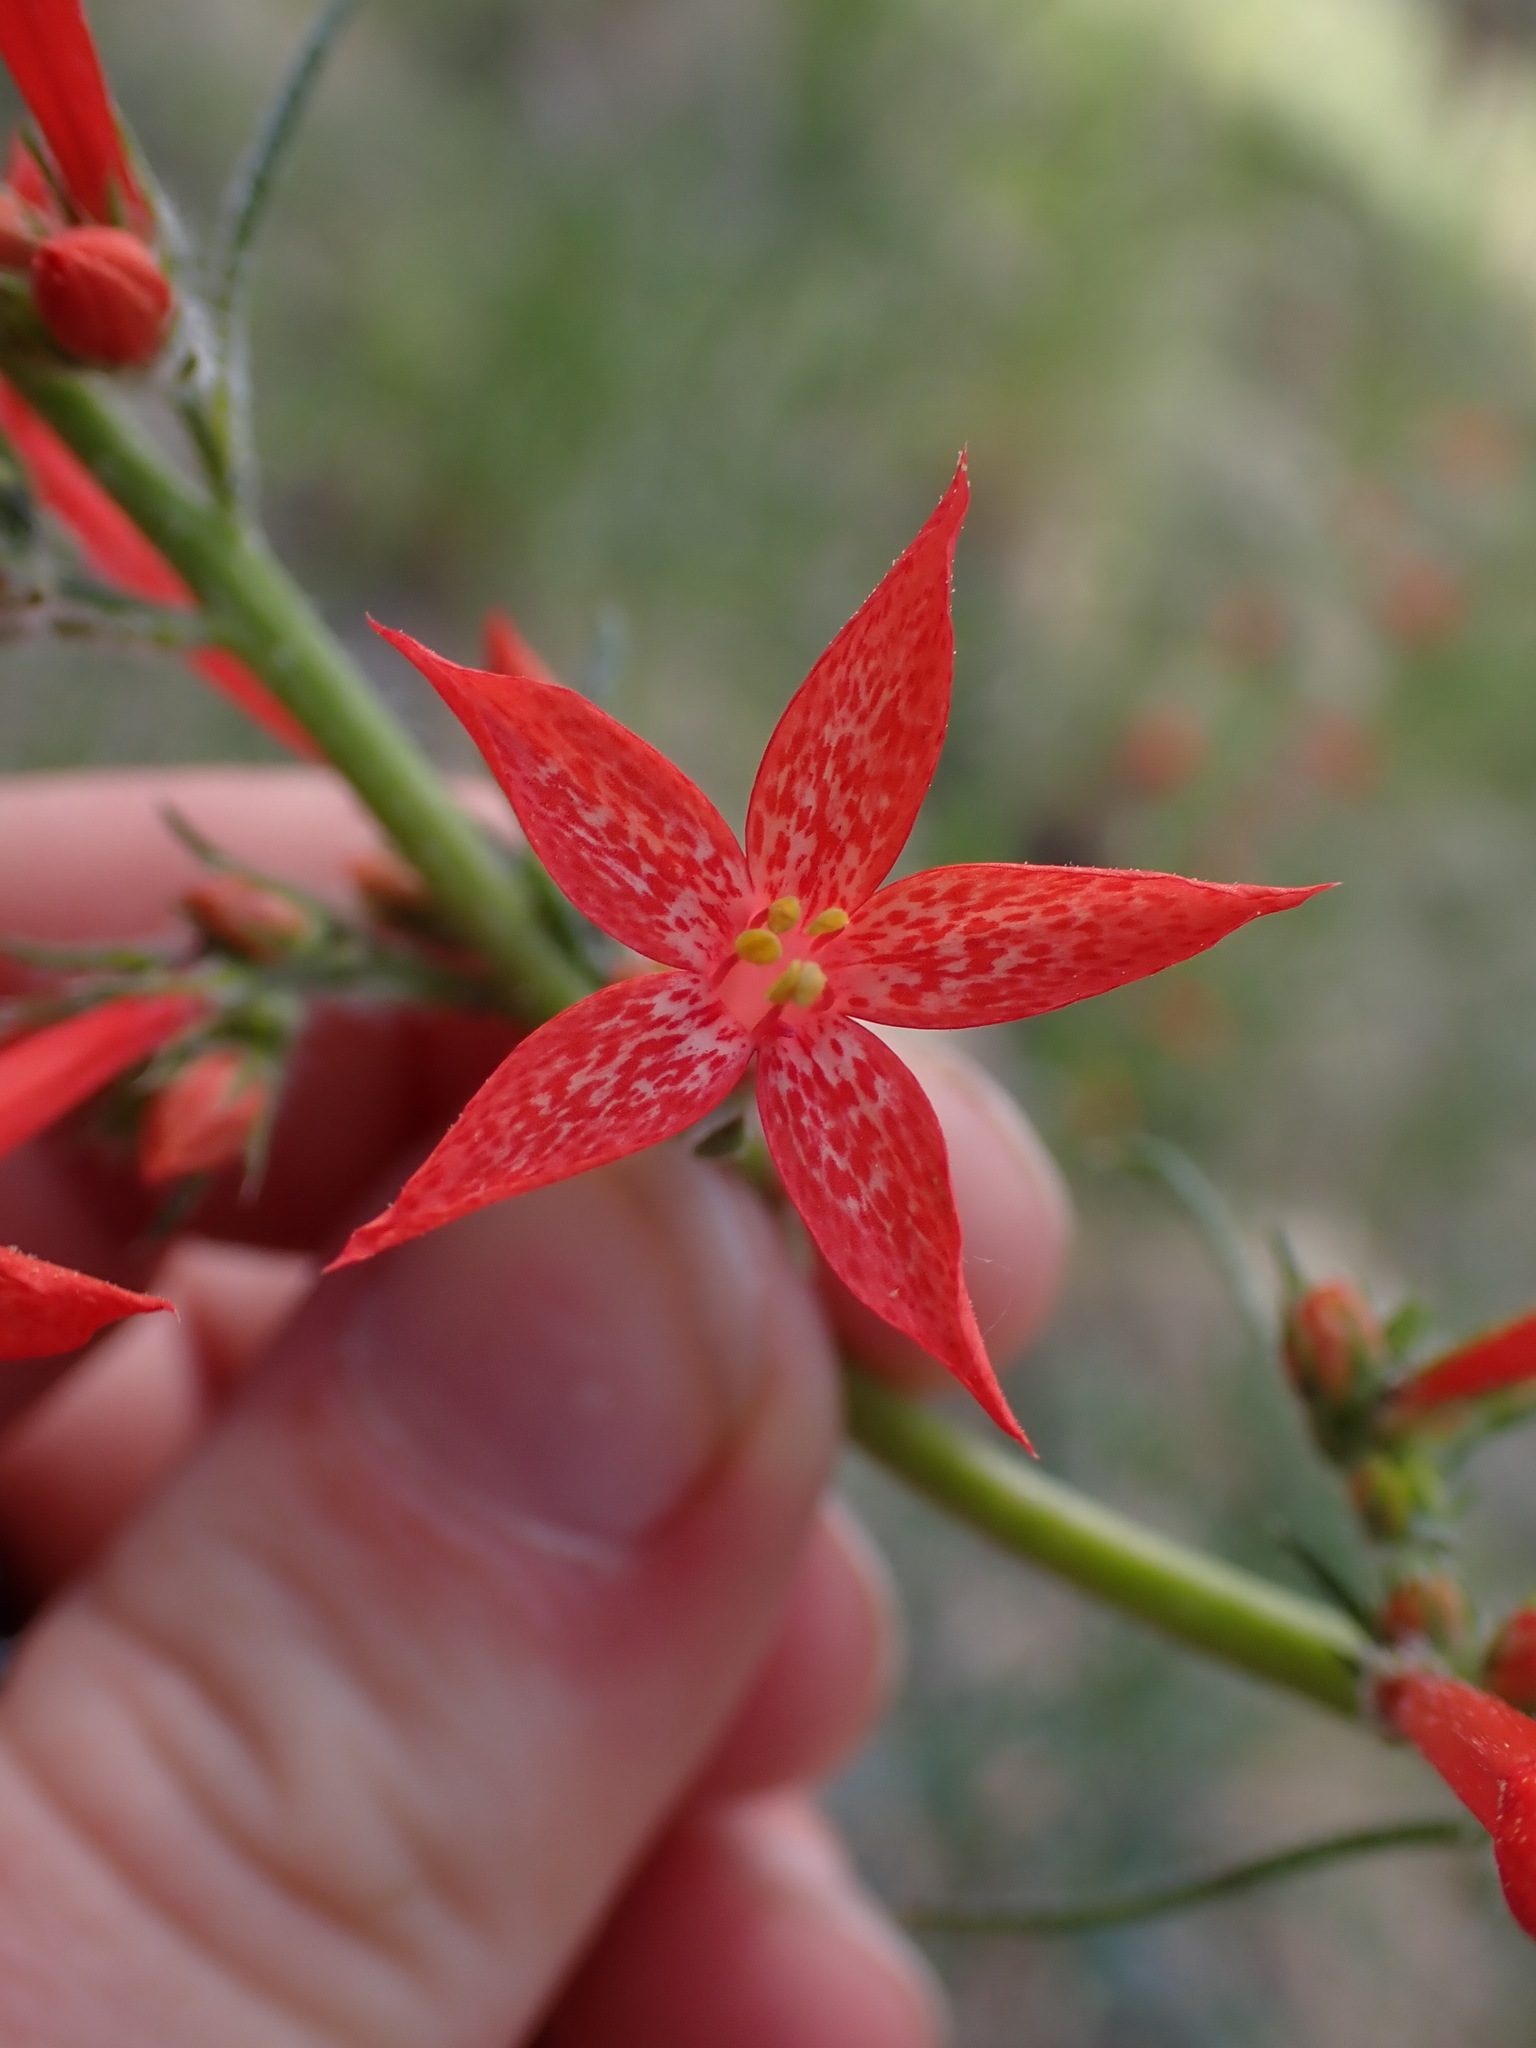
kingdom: Plantae
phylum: Tracheophyta
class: Magnoliopsida
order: Ericales
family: Polemoniaceae
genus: Ipomopsis
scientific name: Ipomopsis aggregata
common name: Scarlet gilia
